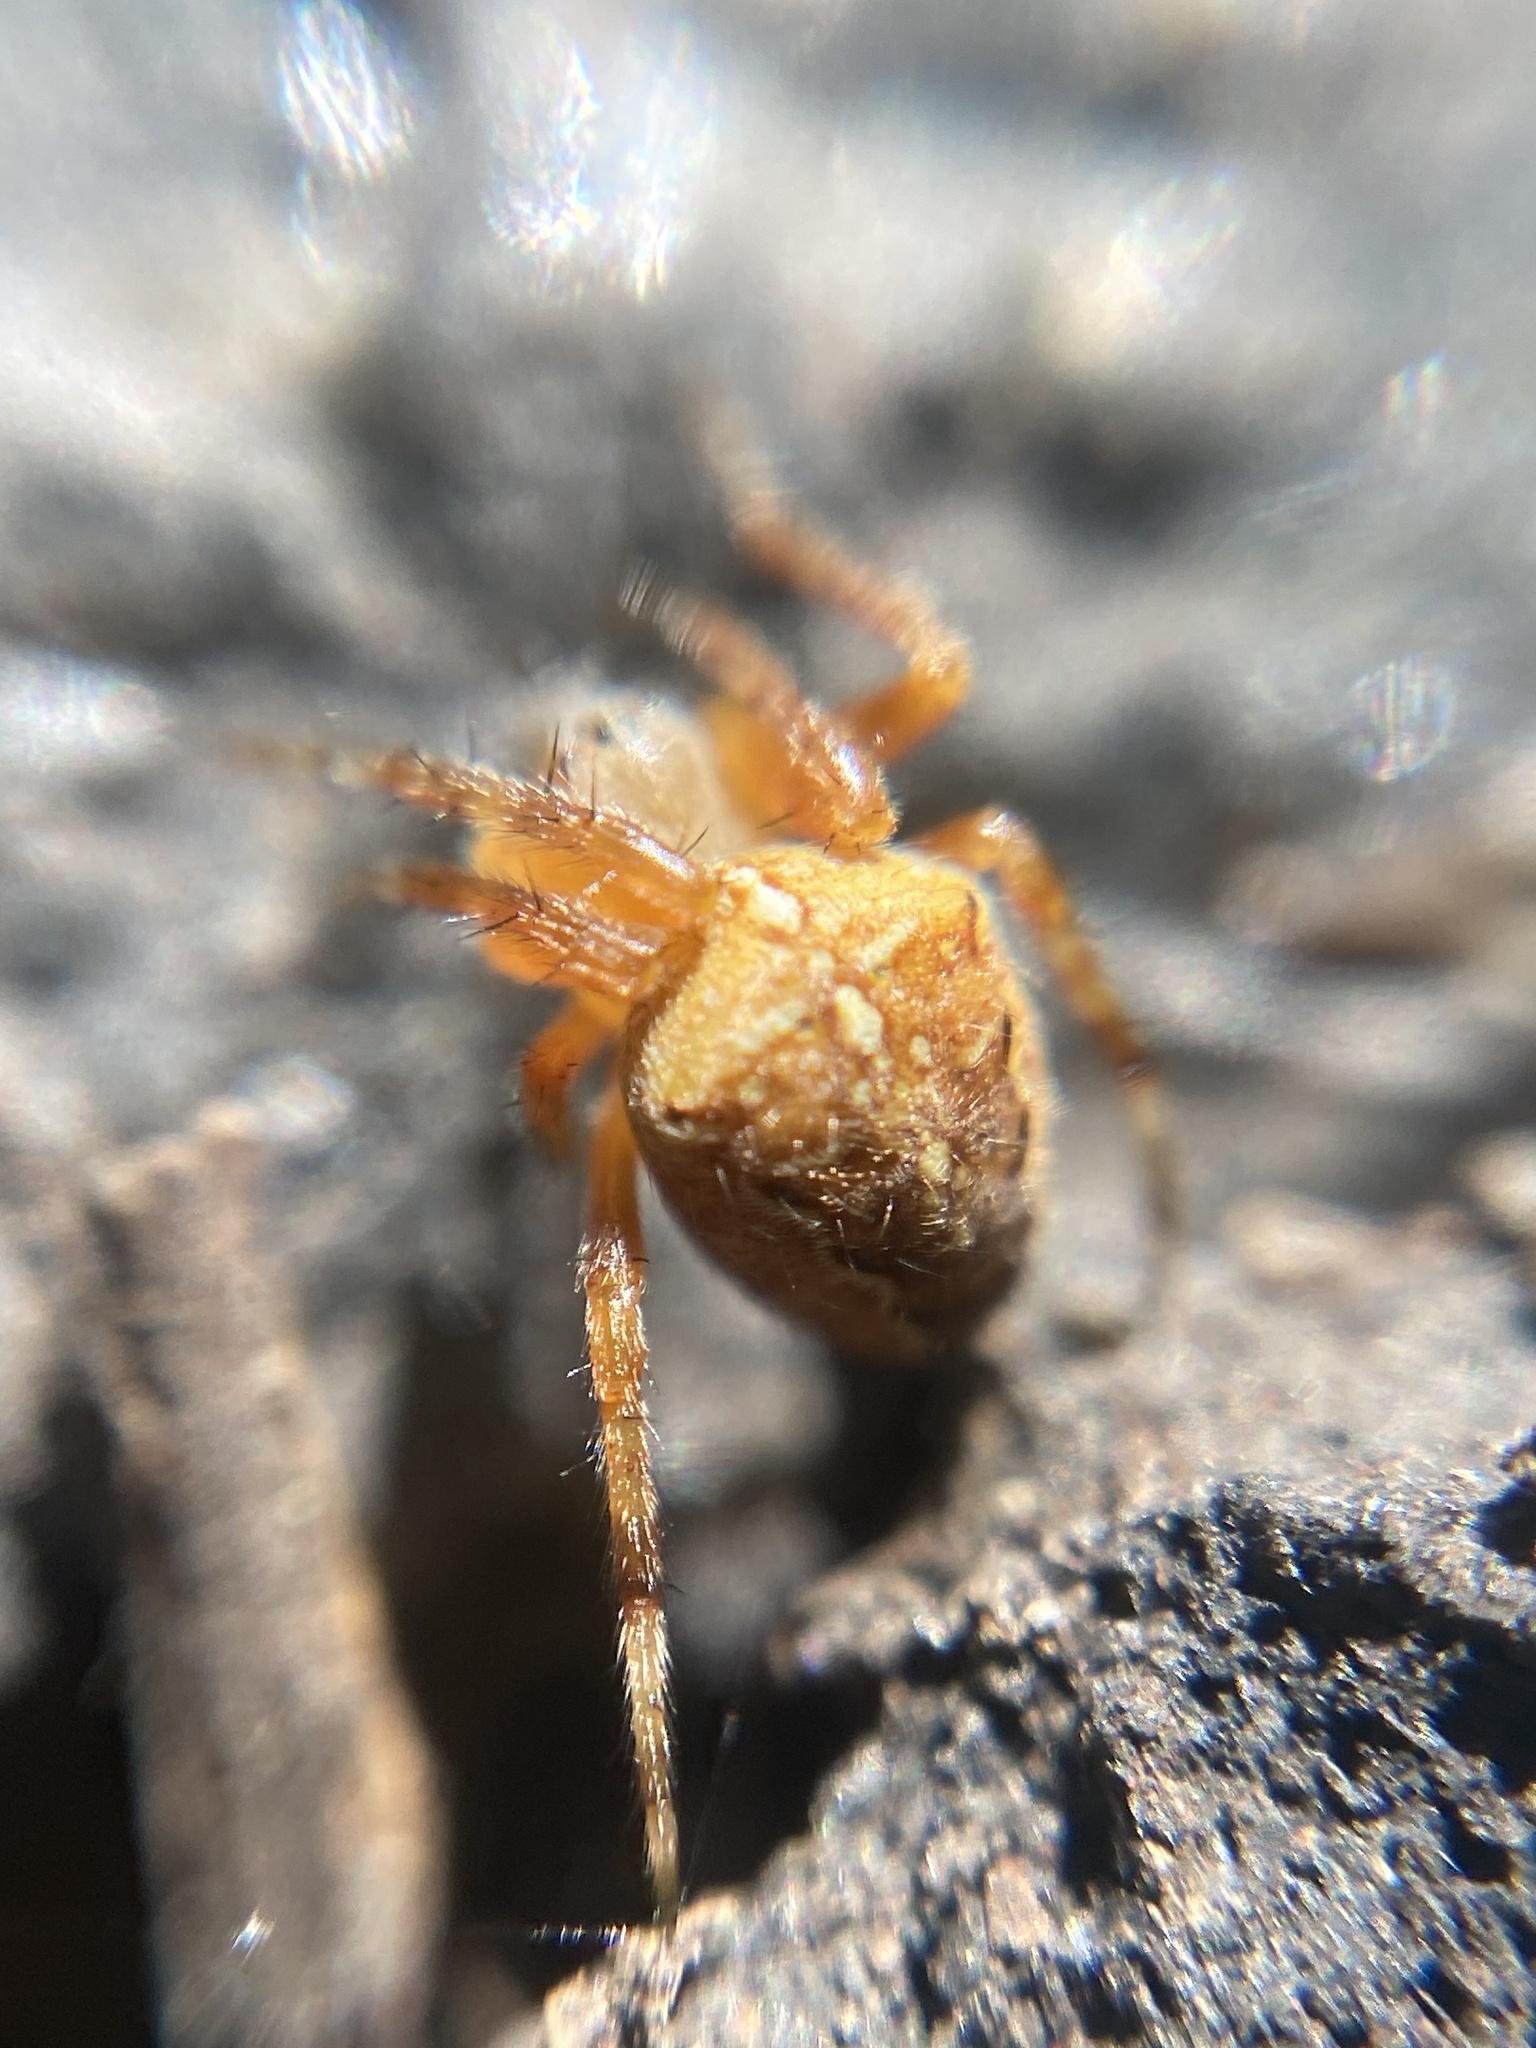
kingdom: Animalia
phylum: Arthropoda
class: Arachnida
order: Araneae
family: Araneidae
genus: Araneus
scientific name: Araneus diadematus
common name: Cross orbweaver
